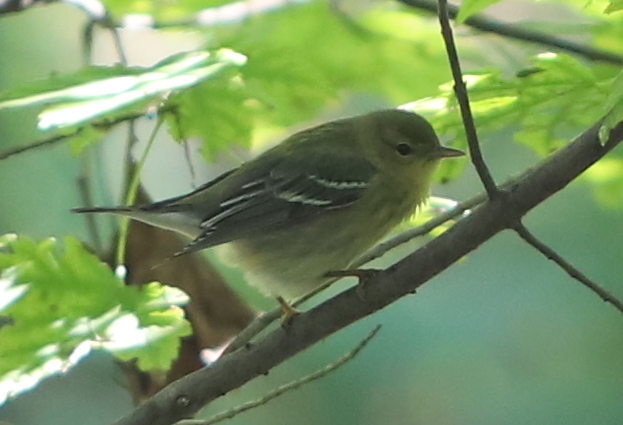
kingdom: Animalia
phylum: Chordata
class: Aves
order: Passeriformes
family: Parulidae
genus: Setophaga
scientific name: Setophaga striata
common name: Blackpoll warbler
